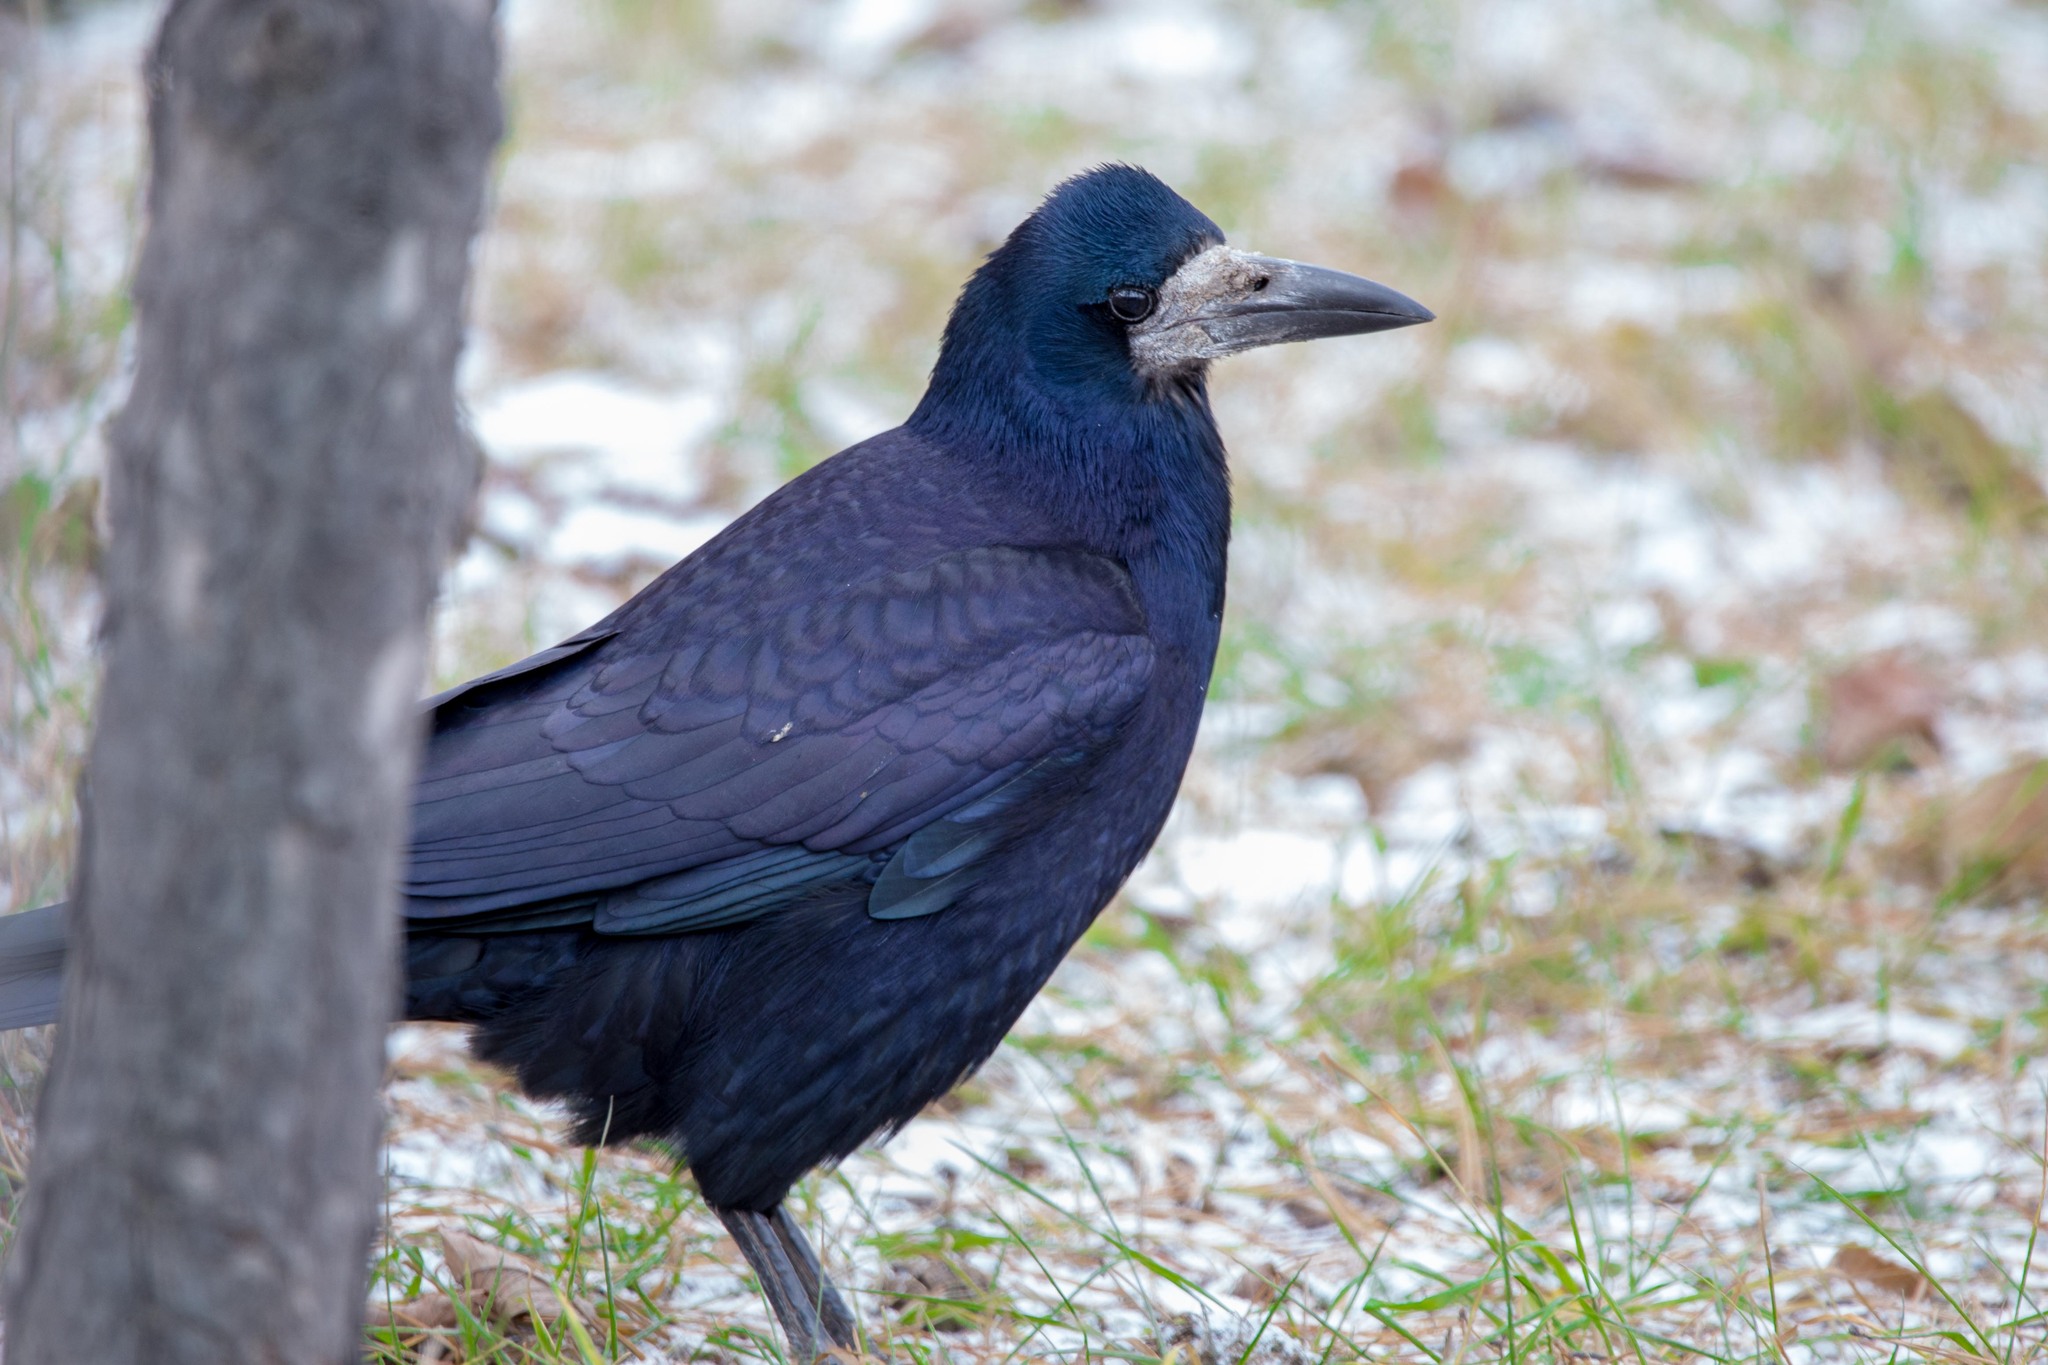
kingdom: Animalia
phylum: Chordata
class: Aves
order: Passeriformes
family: Corvidae
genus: Corvus
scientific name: Corvus frugilegus
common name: Rook
